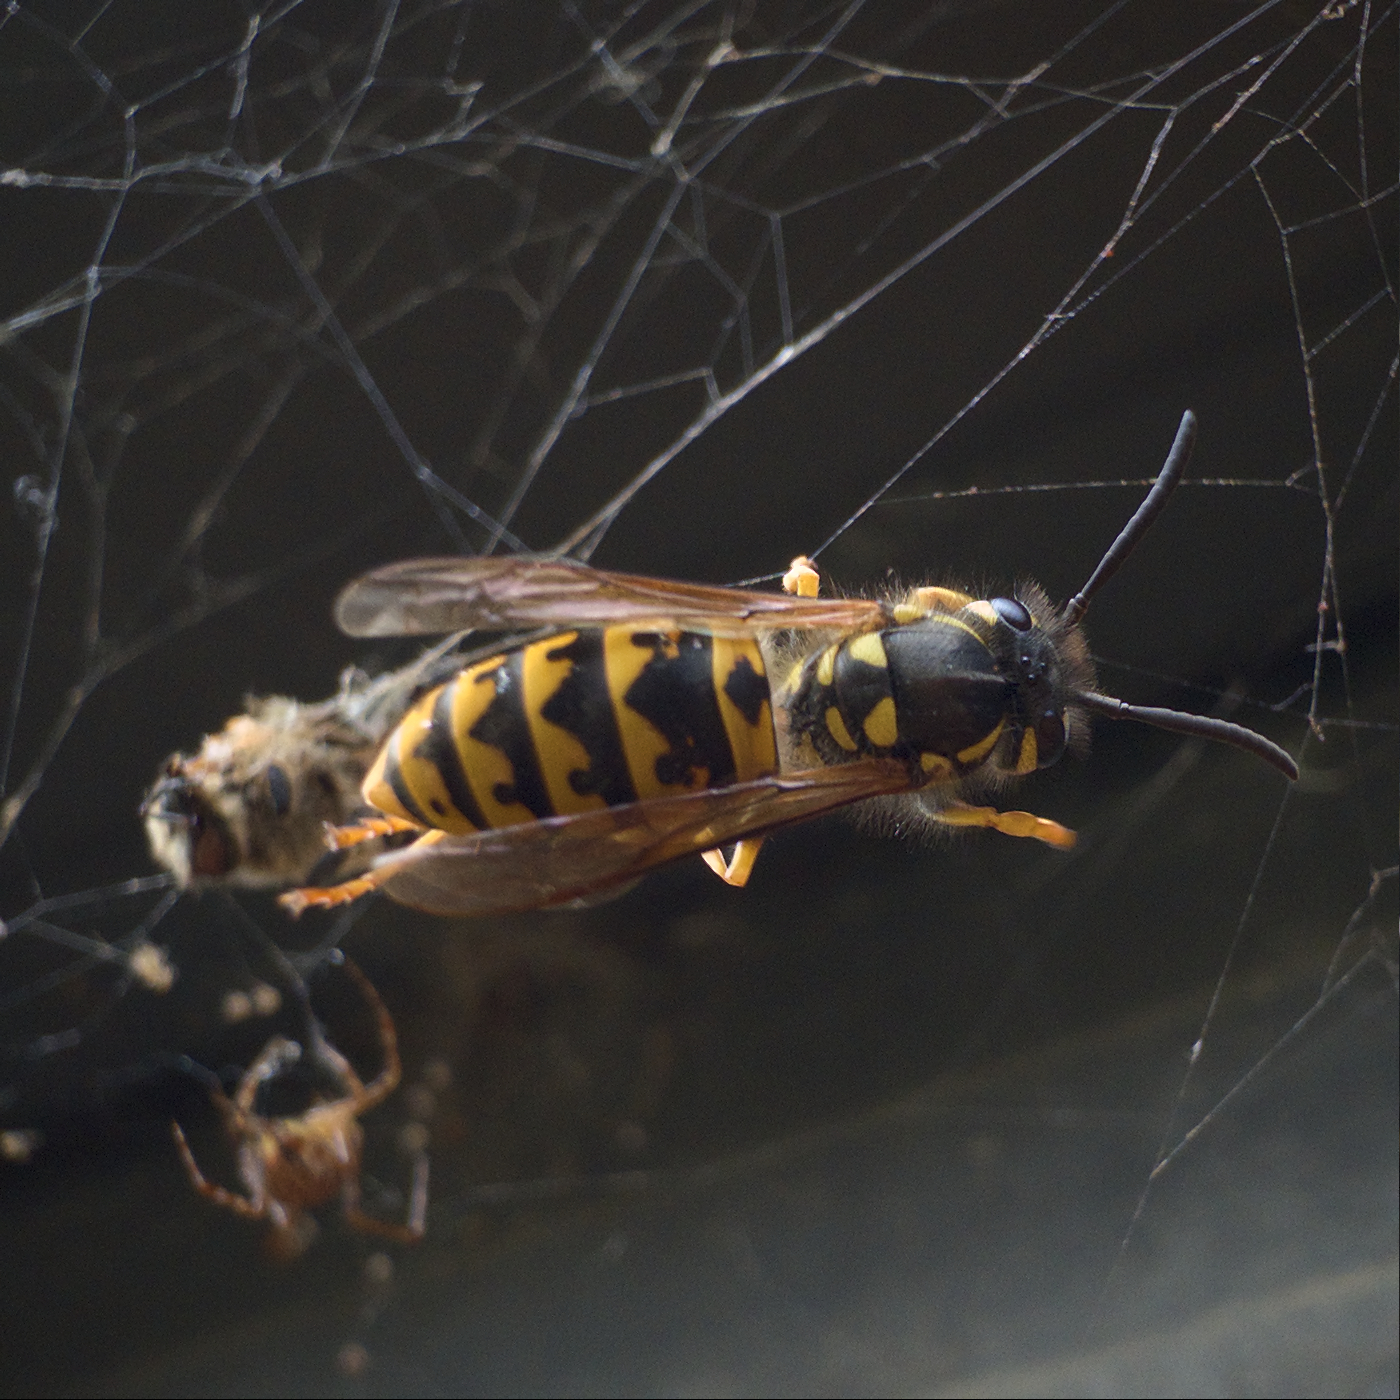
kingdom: Animalia
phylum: Arthropoda
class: Insecta
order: Hymenoptera
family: Vespidae
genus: Vespula
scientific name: Vespula germanica
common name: German wasp
